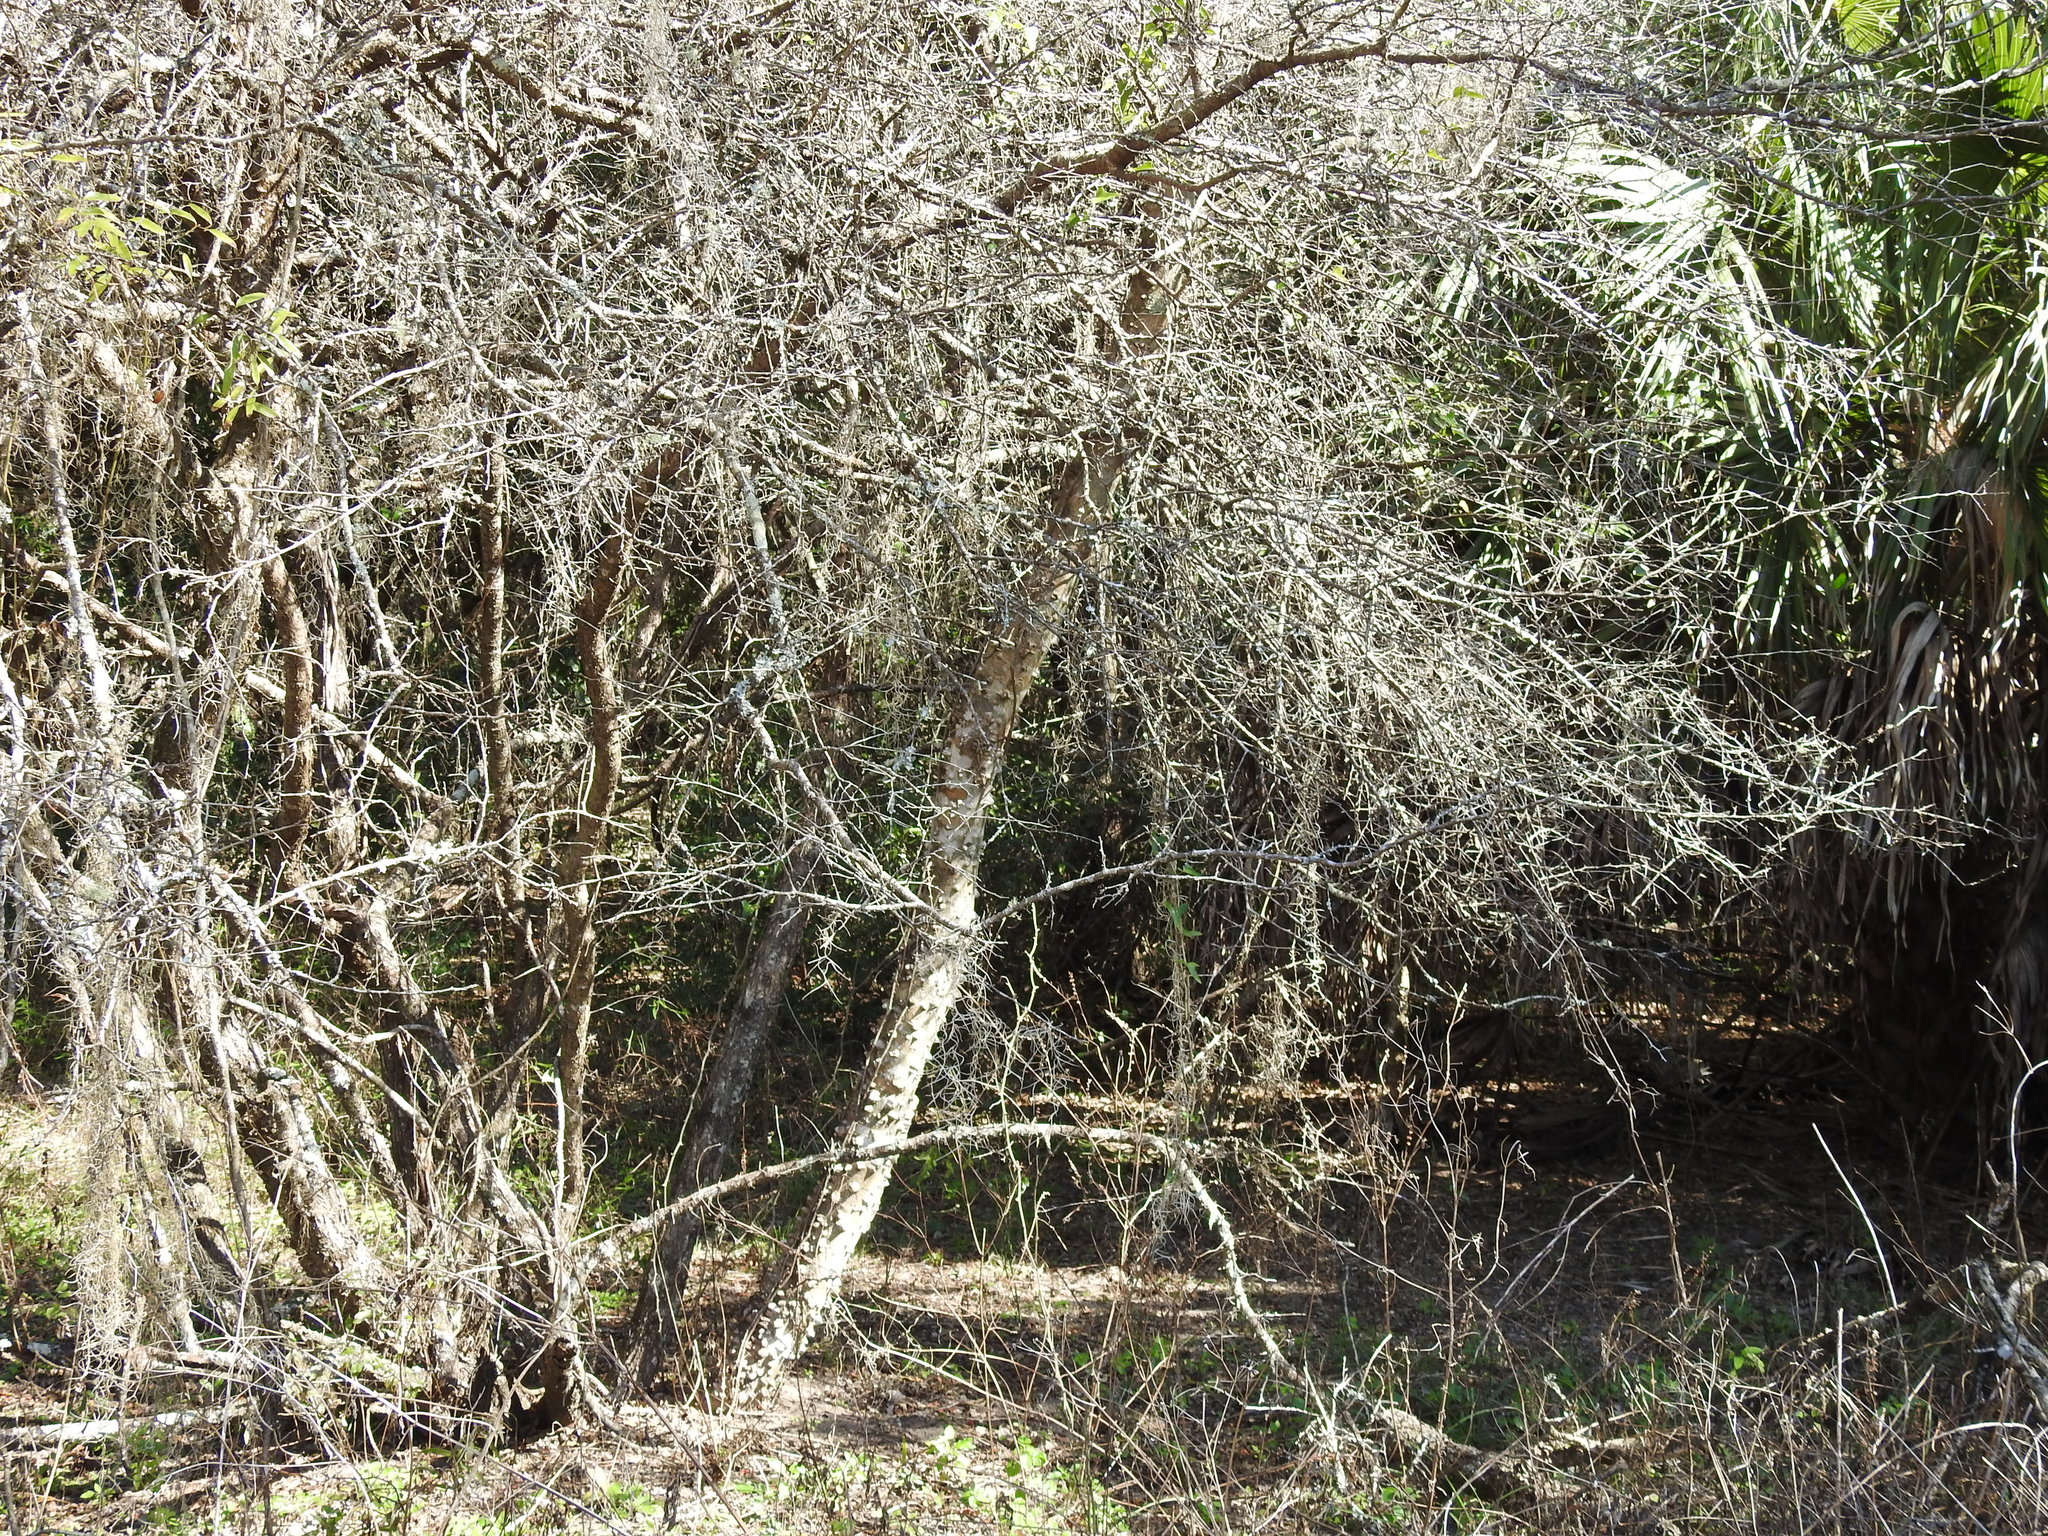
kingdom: Plantae
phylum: Tracheophyta
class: Magnoliopsida
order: Sapindales
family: Rutaceae
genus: Zanthoxylum
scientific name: Zanthoxylum clava-herculis
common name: Hercules'-club
